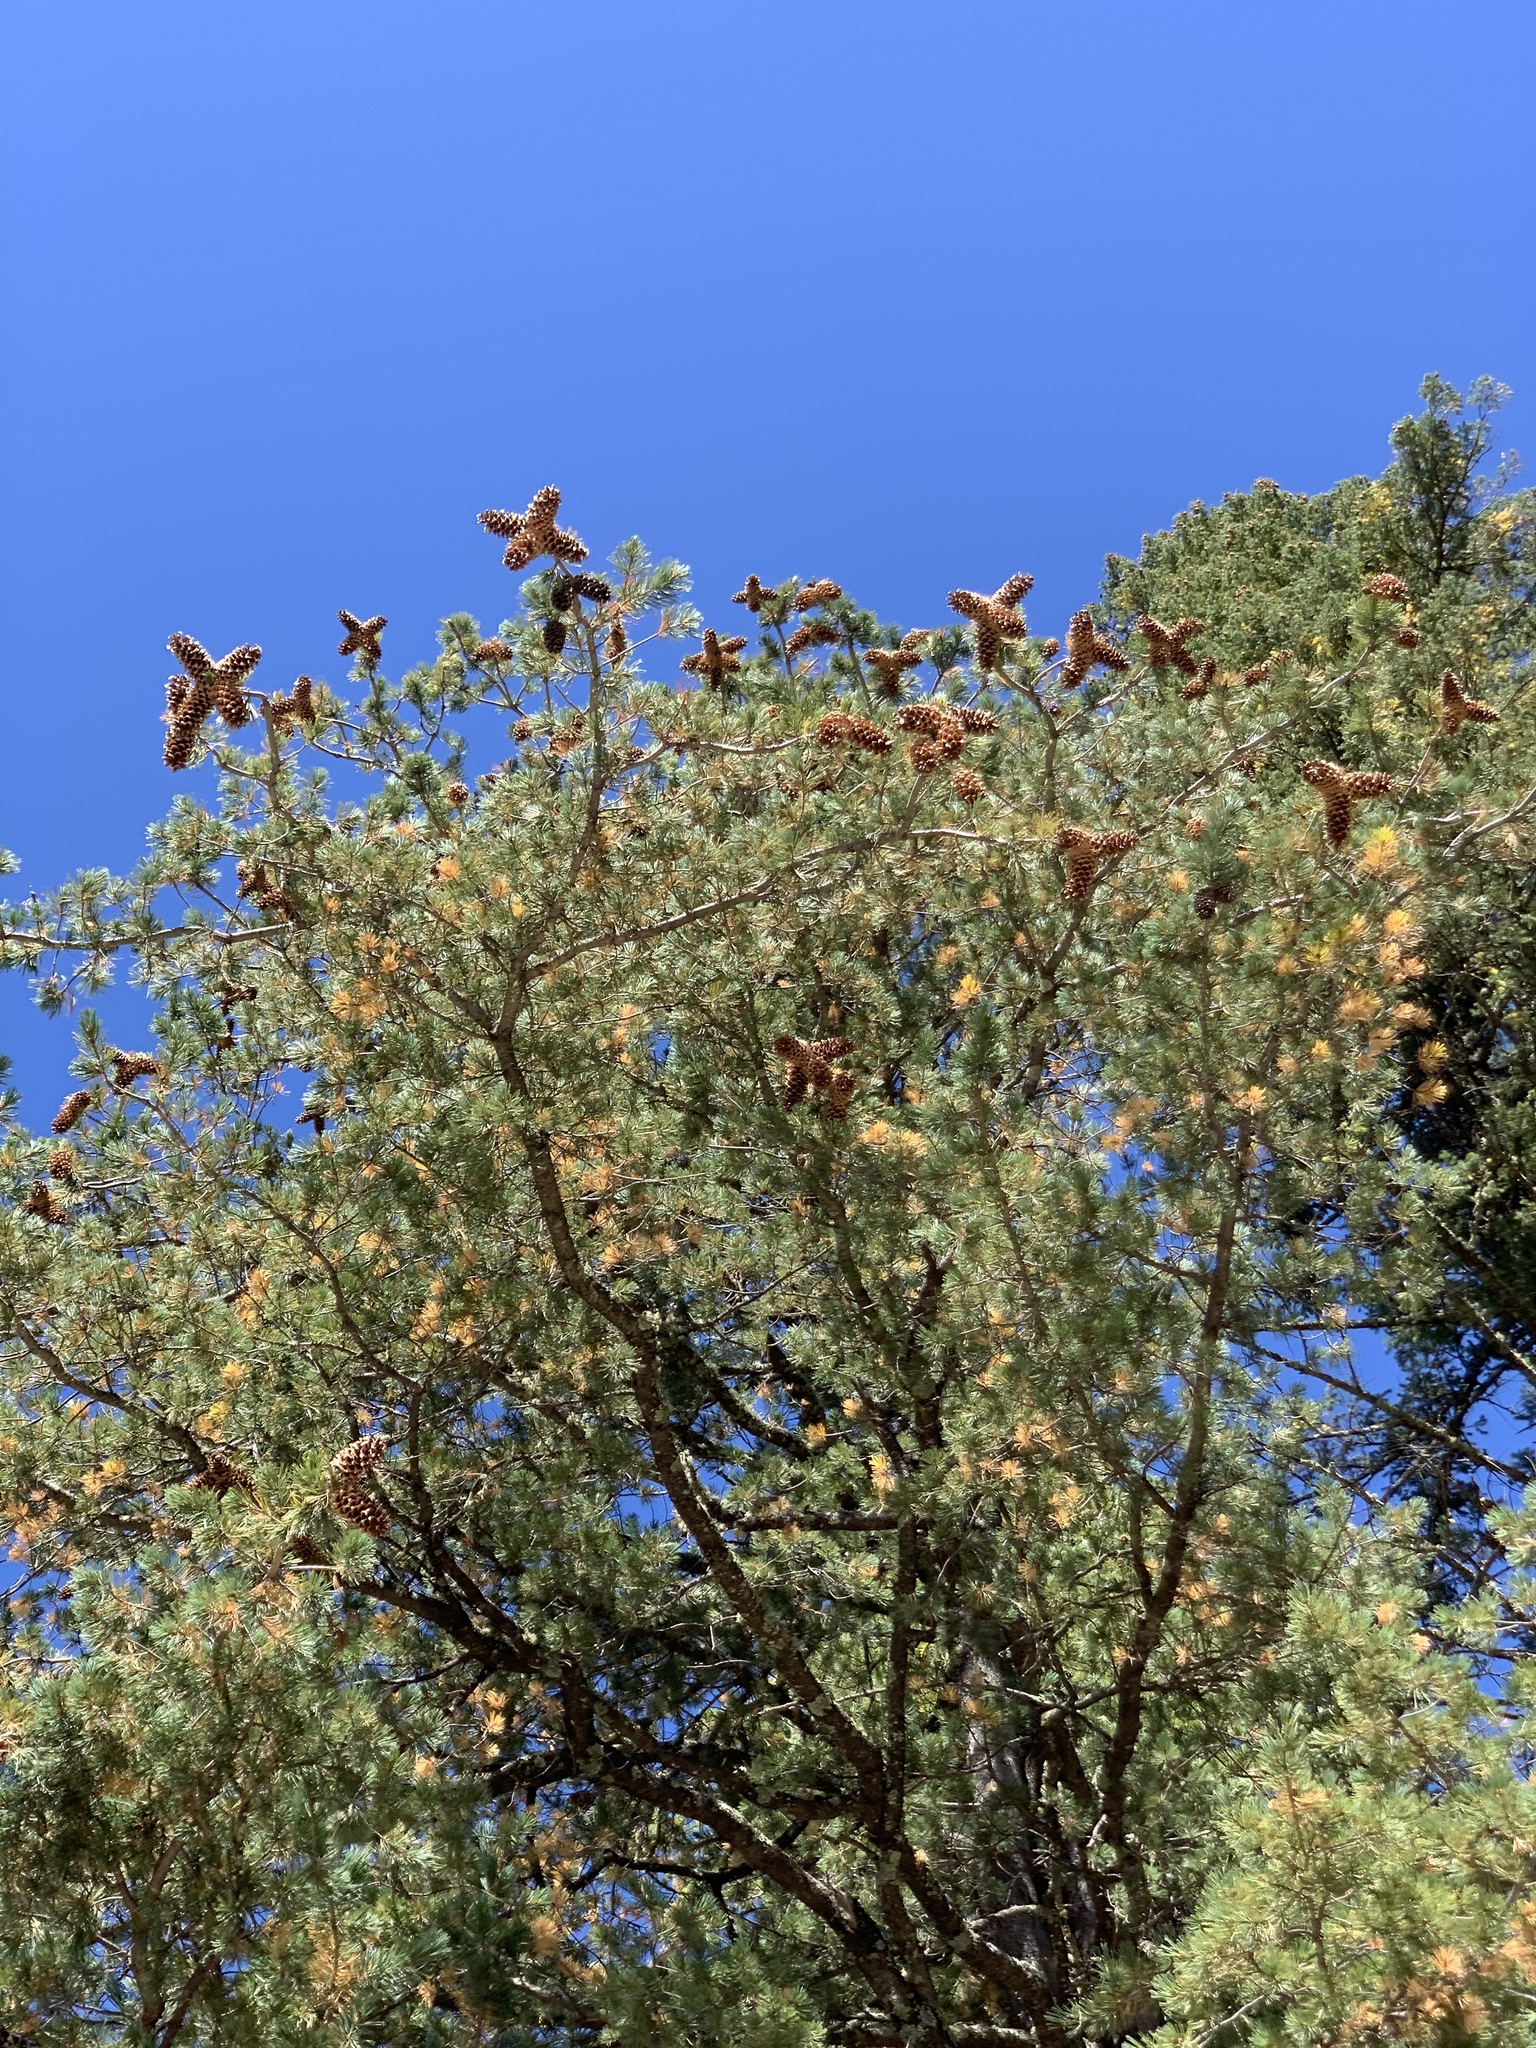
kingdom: Plantae
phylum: Tracheophyta
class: Pinopsida
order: Pinales
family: Pinaceae
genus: Pinus
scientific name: Pinus strobiformis
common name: Southwestern white pine
